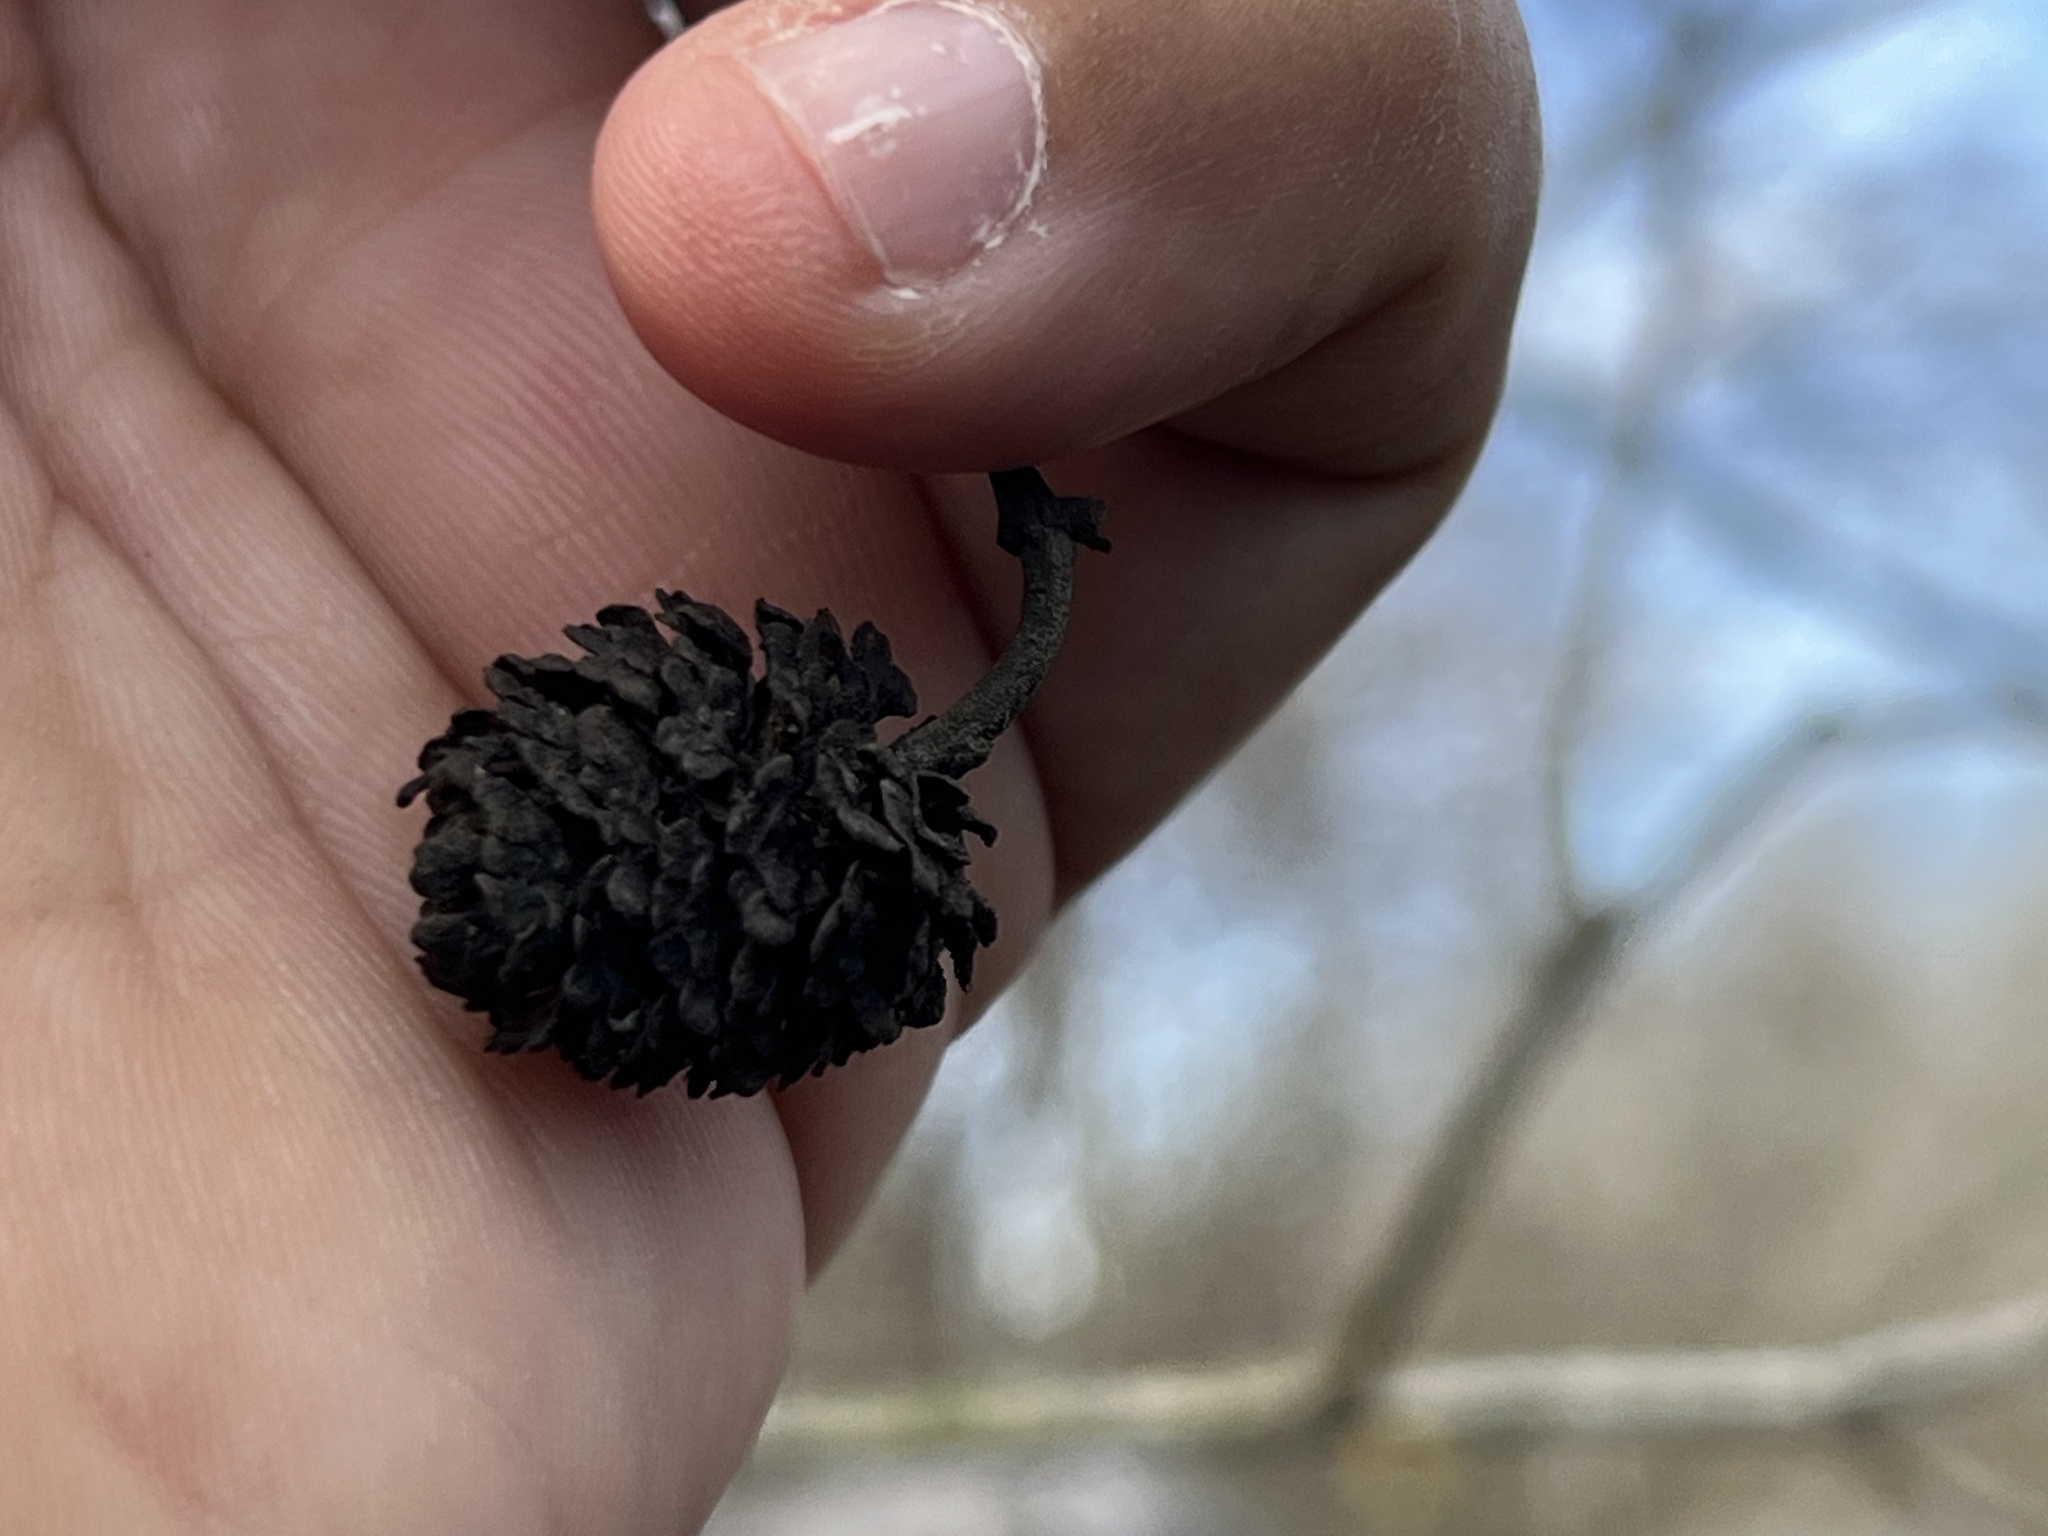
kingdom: Plantae
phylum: Tracheophyta
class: Magnoliopsida
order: Fagales
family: Betulaceae
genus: Alnus
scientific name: Alnus maritima
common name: Seaside alder
